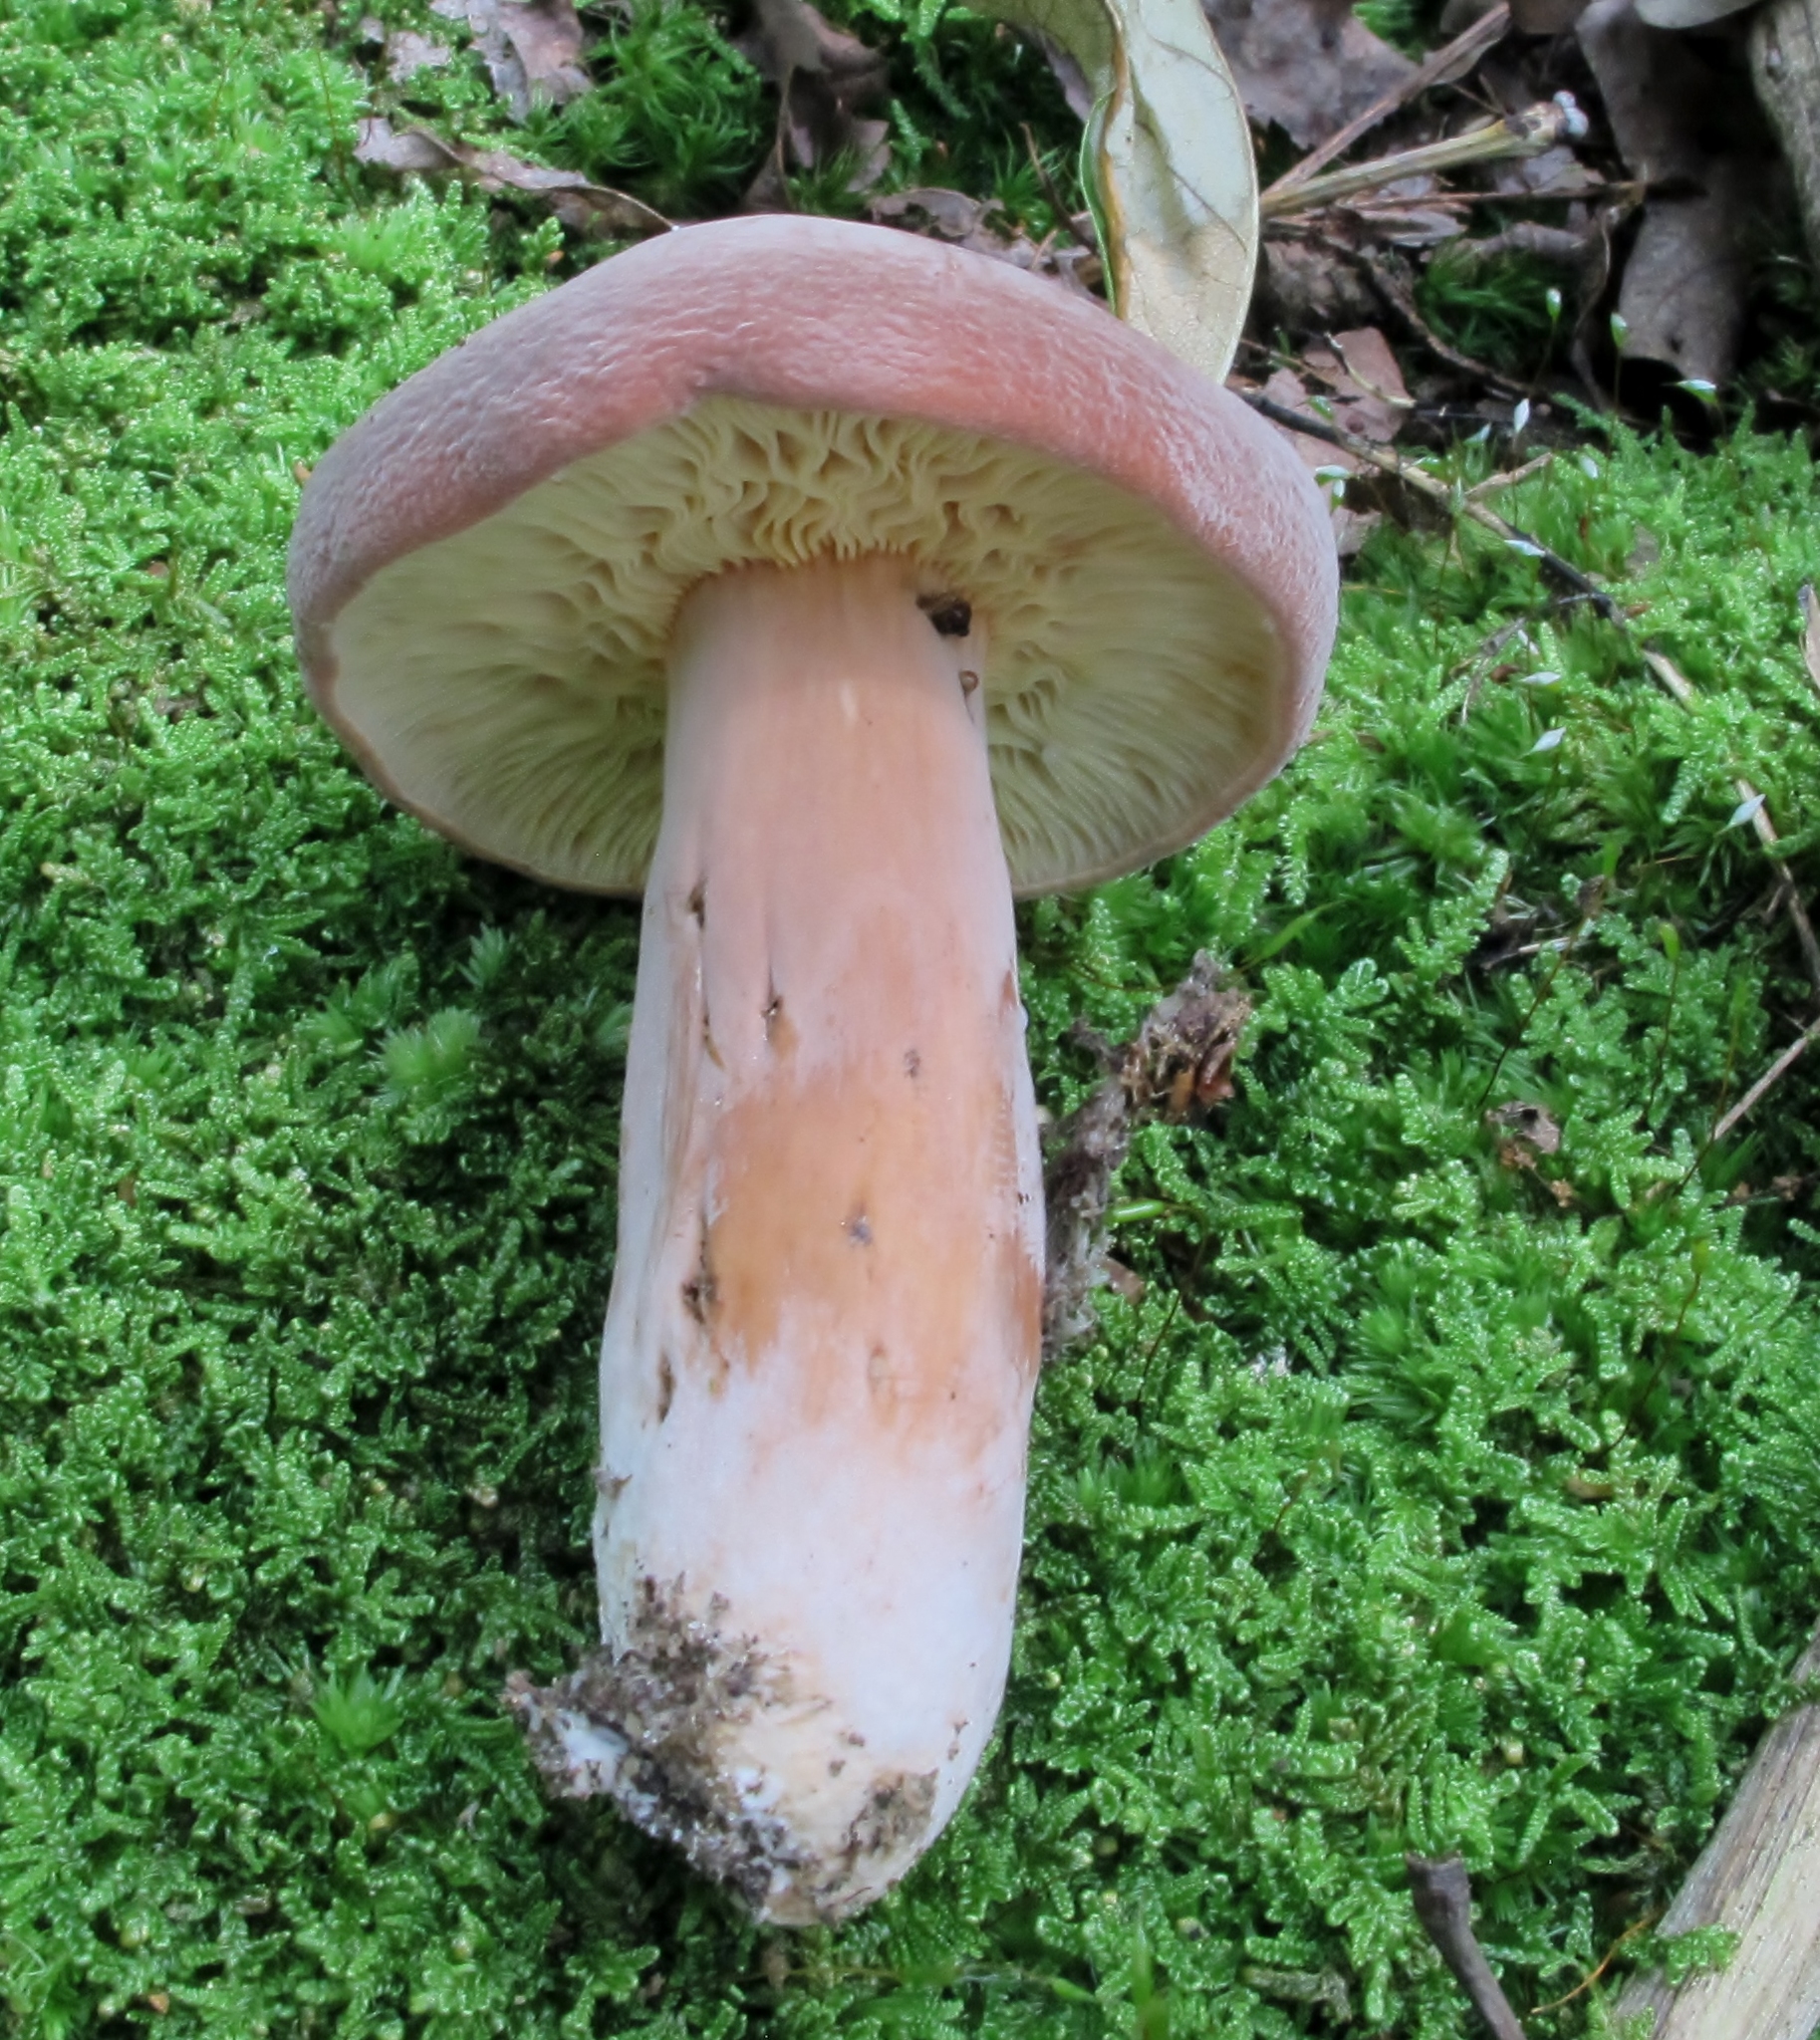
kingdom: Fungi
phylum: Basidiomycota
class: Agaricomycetes
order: Russulales
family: Russulaceae
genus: Lactifluus
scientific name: Lactifluus volemus
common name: Fishy milkcap
